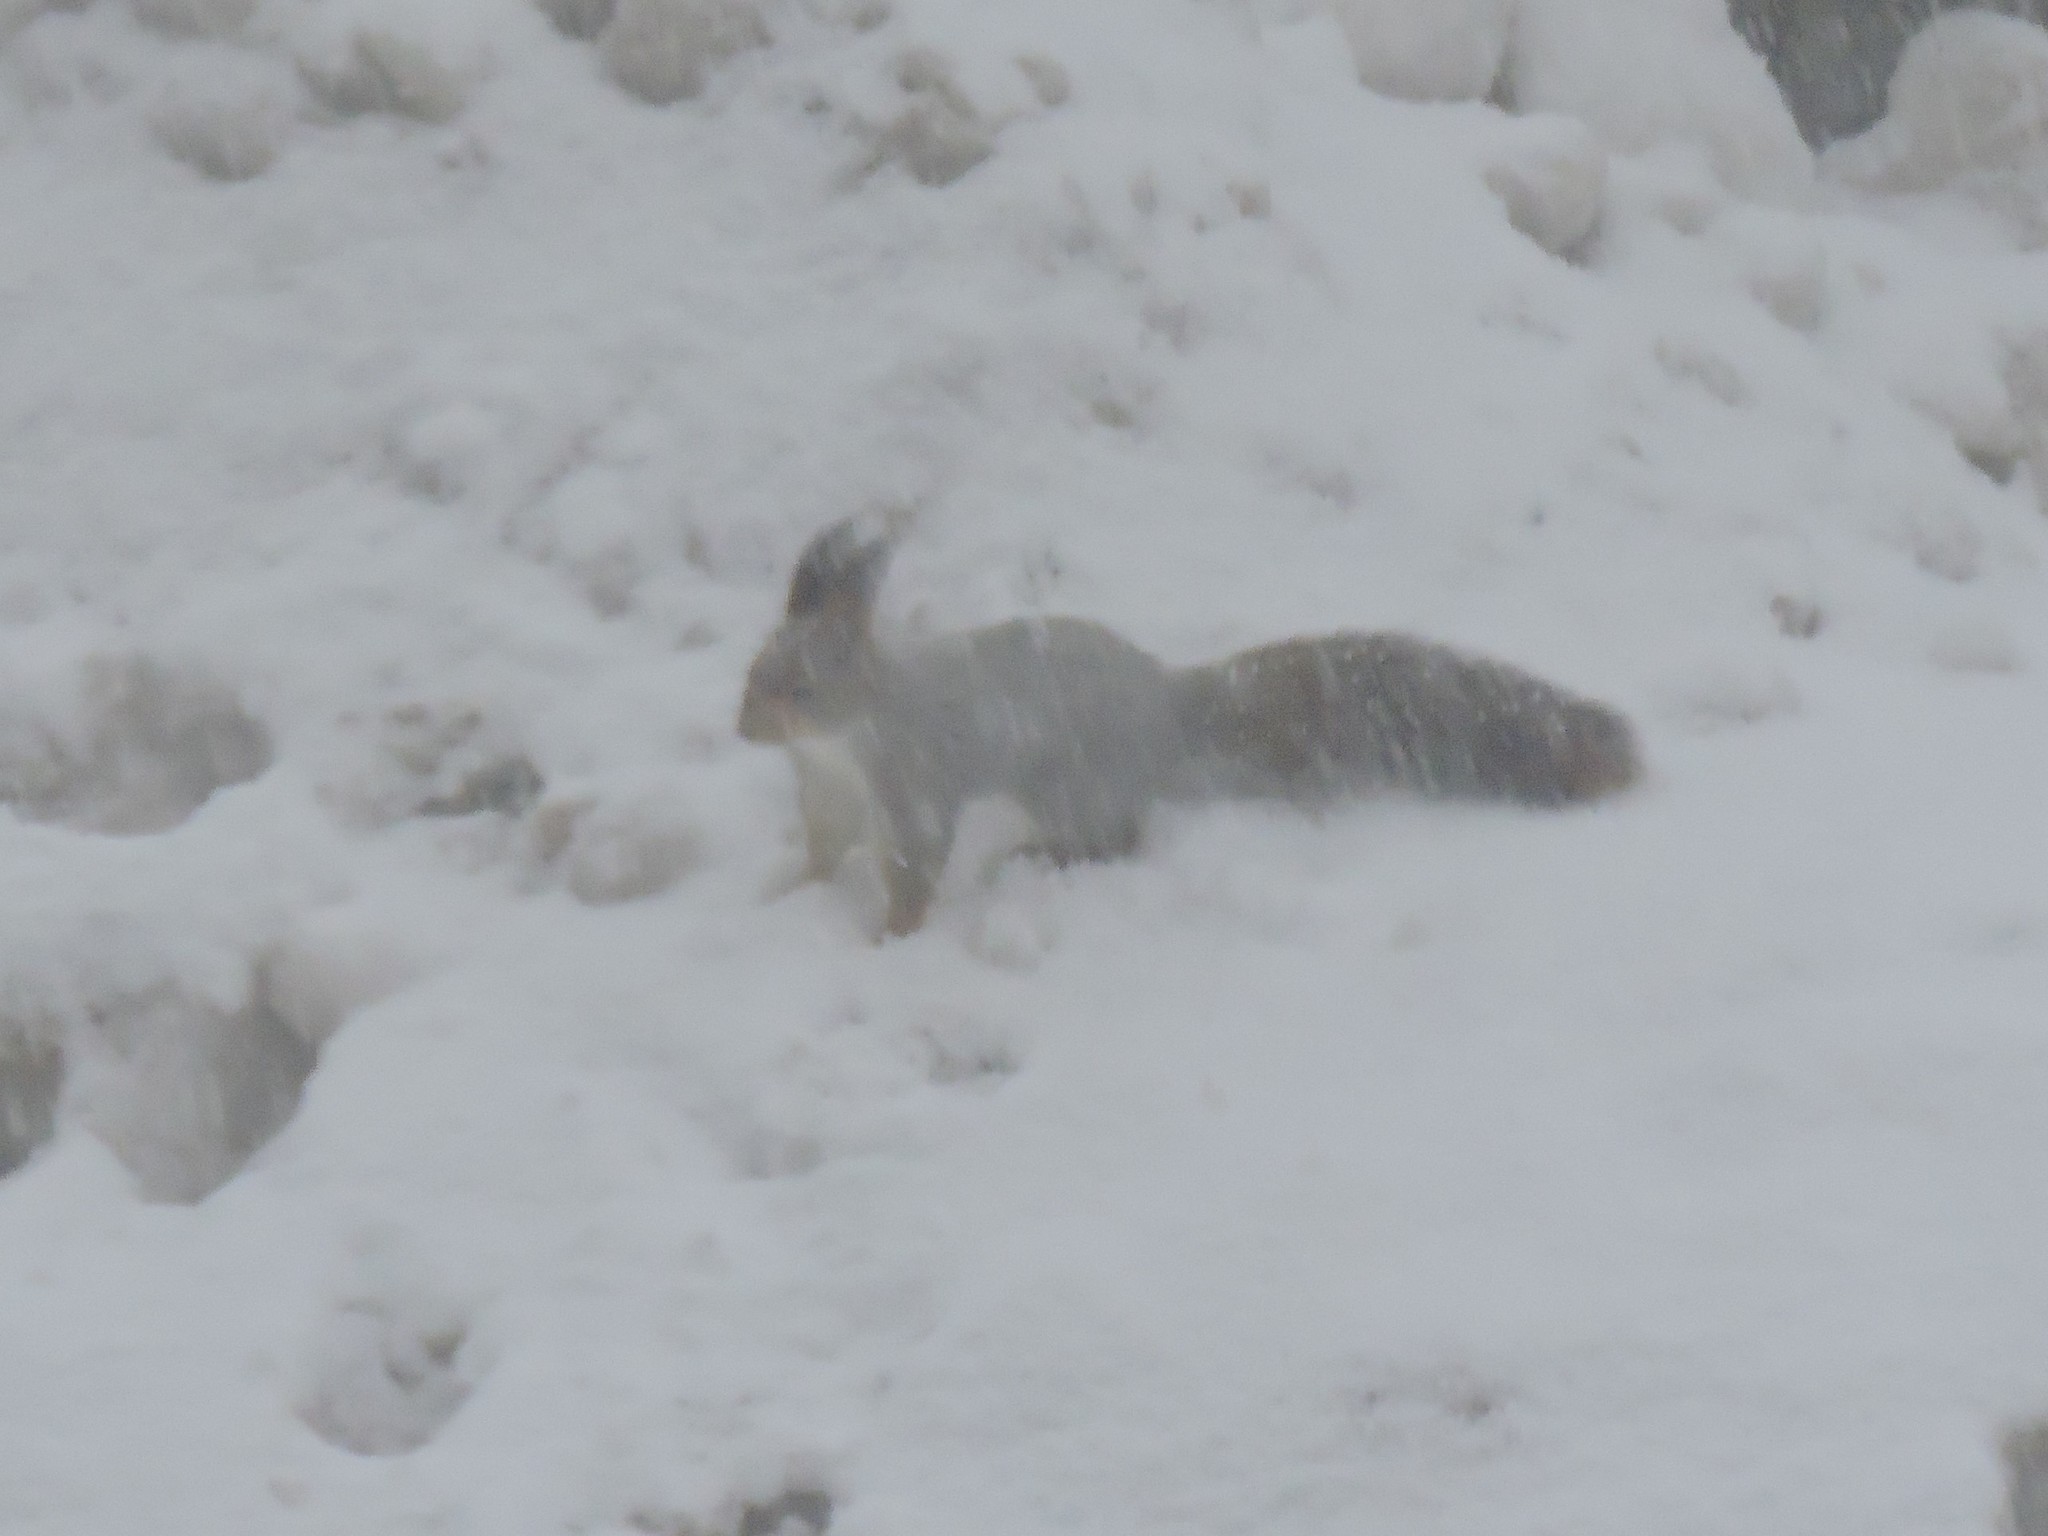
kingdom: Animalia
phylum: Chordata
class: Mammalia
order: Rodentia
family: Sciuridae
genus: Sciurus
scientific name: Sciurus vulgaris
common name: Eurasian red squirrel
